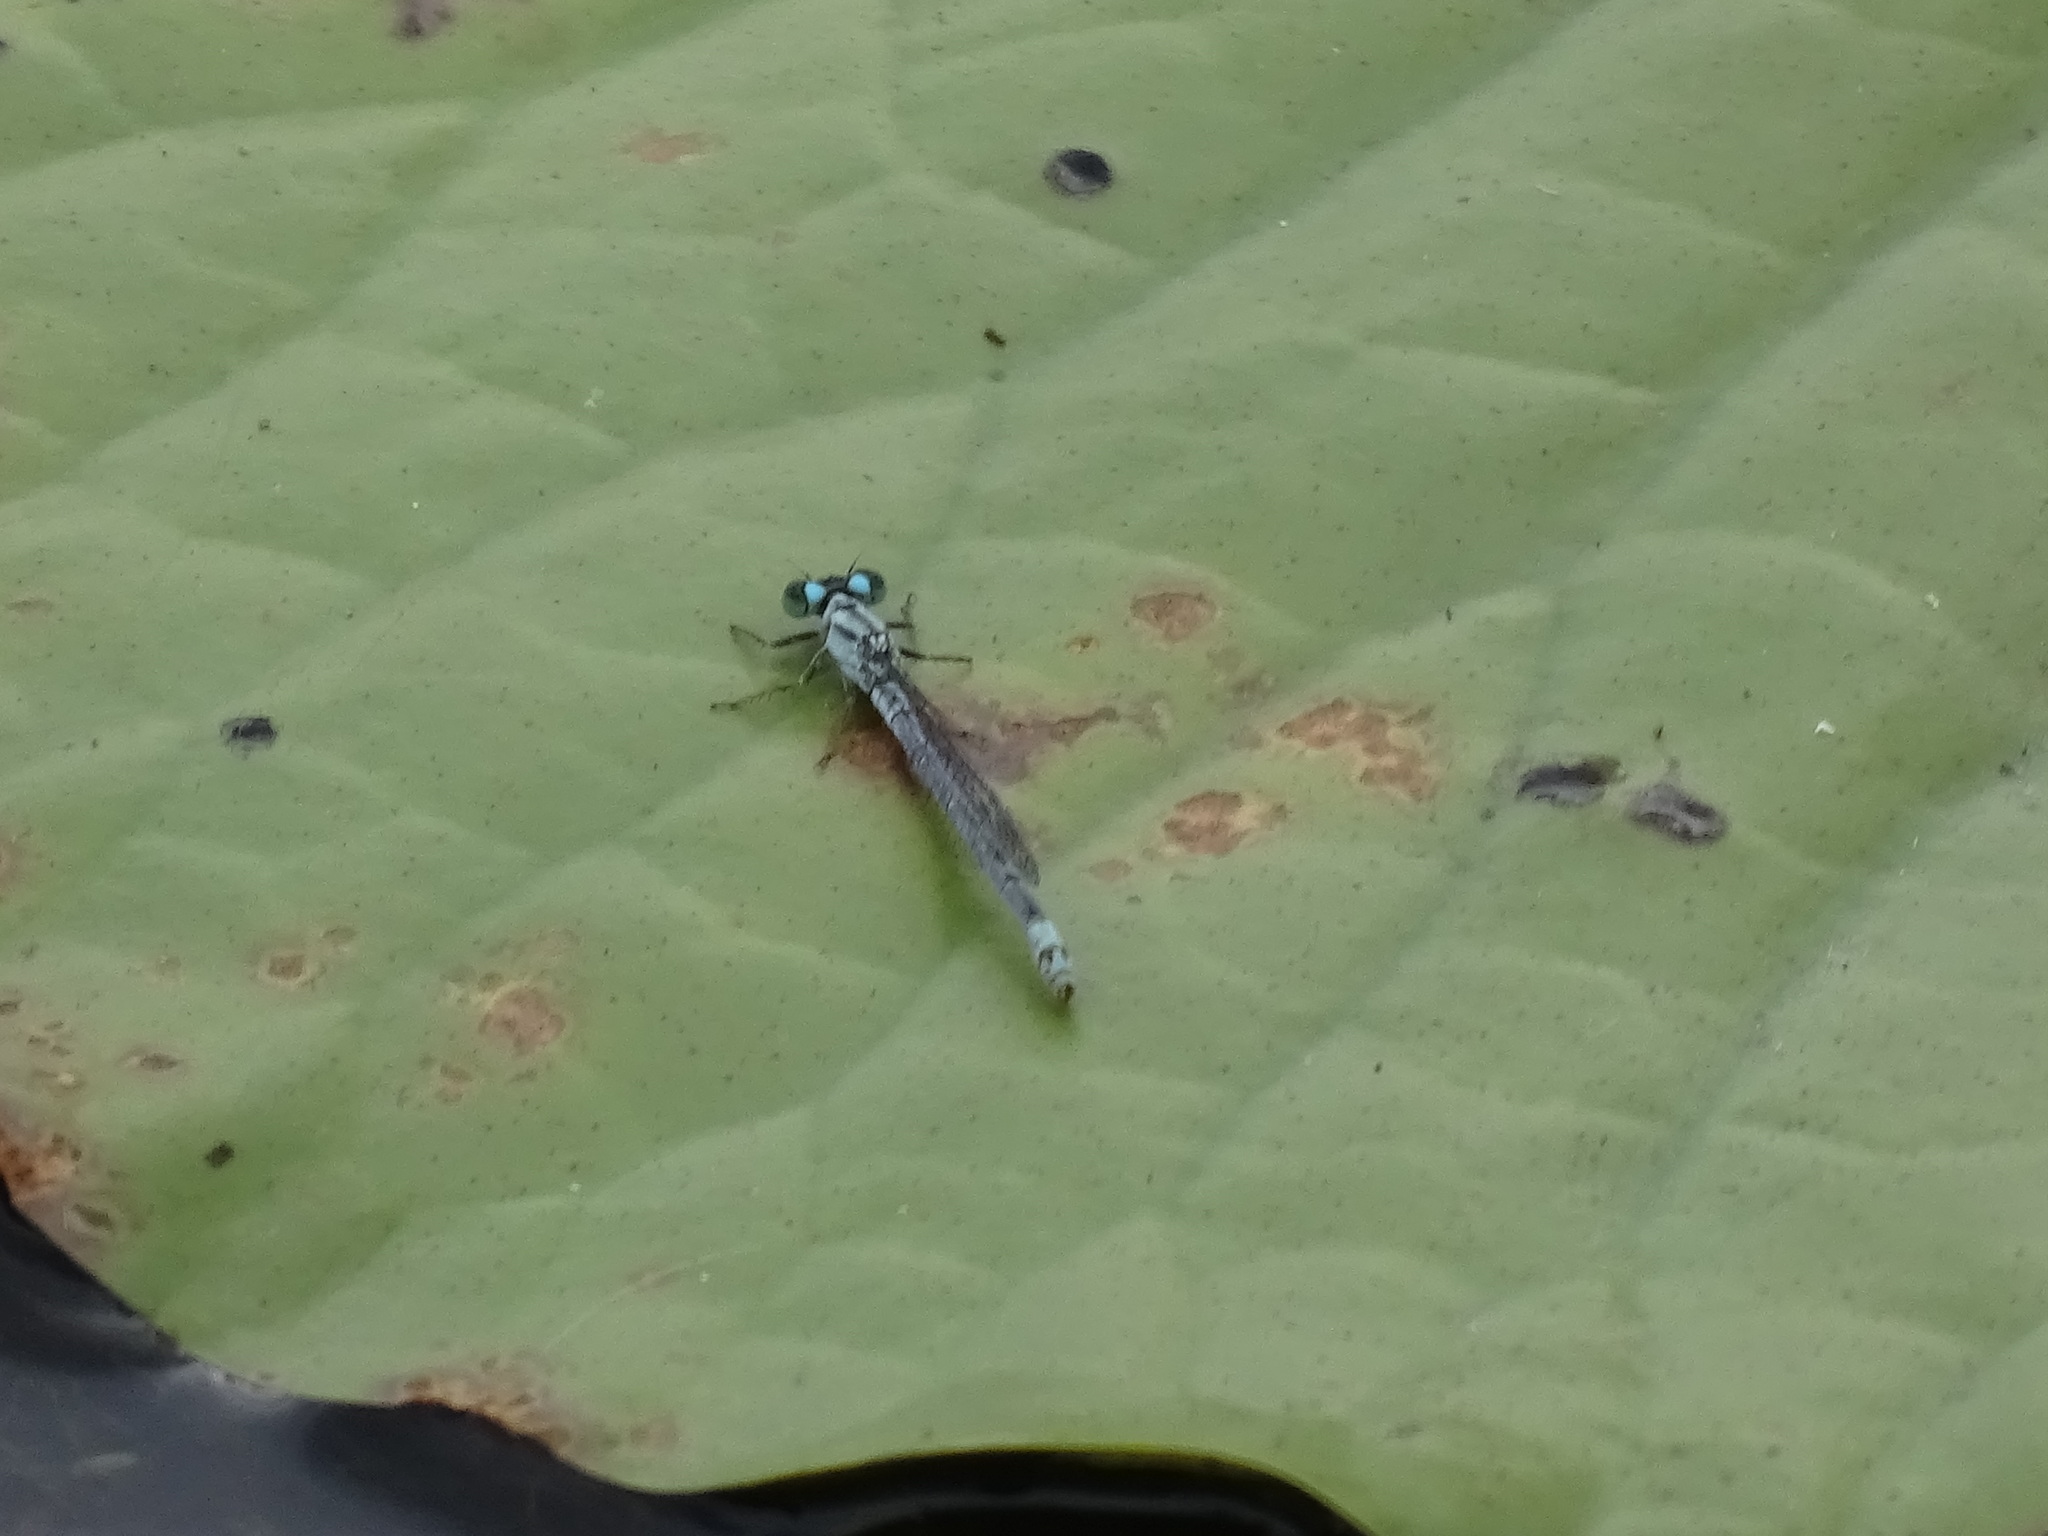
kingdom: Animalia
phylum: Arthropoda
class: Insecta
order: Odonata
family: Coenagrionidae
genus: Ischnura
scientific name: Ischnura kellicotti
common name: Lilypad forktail
